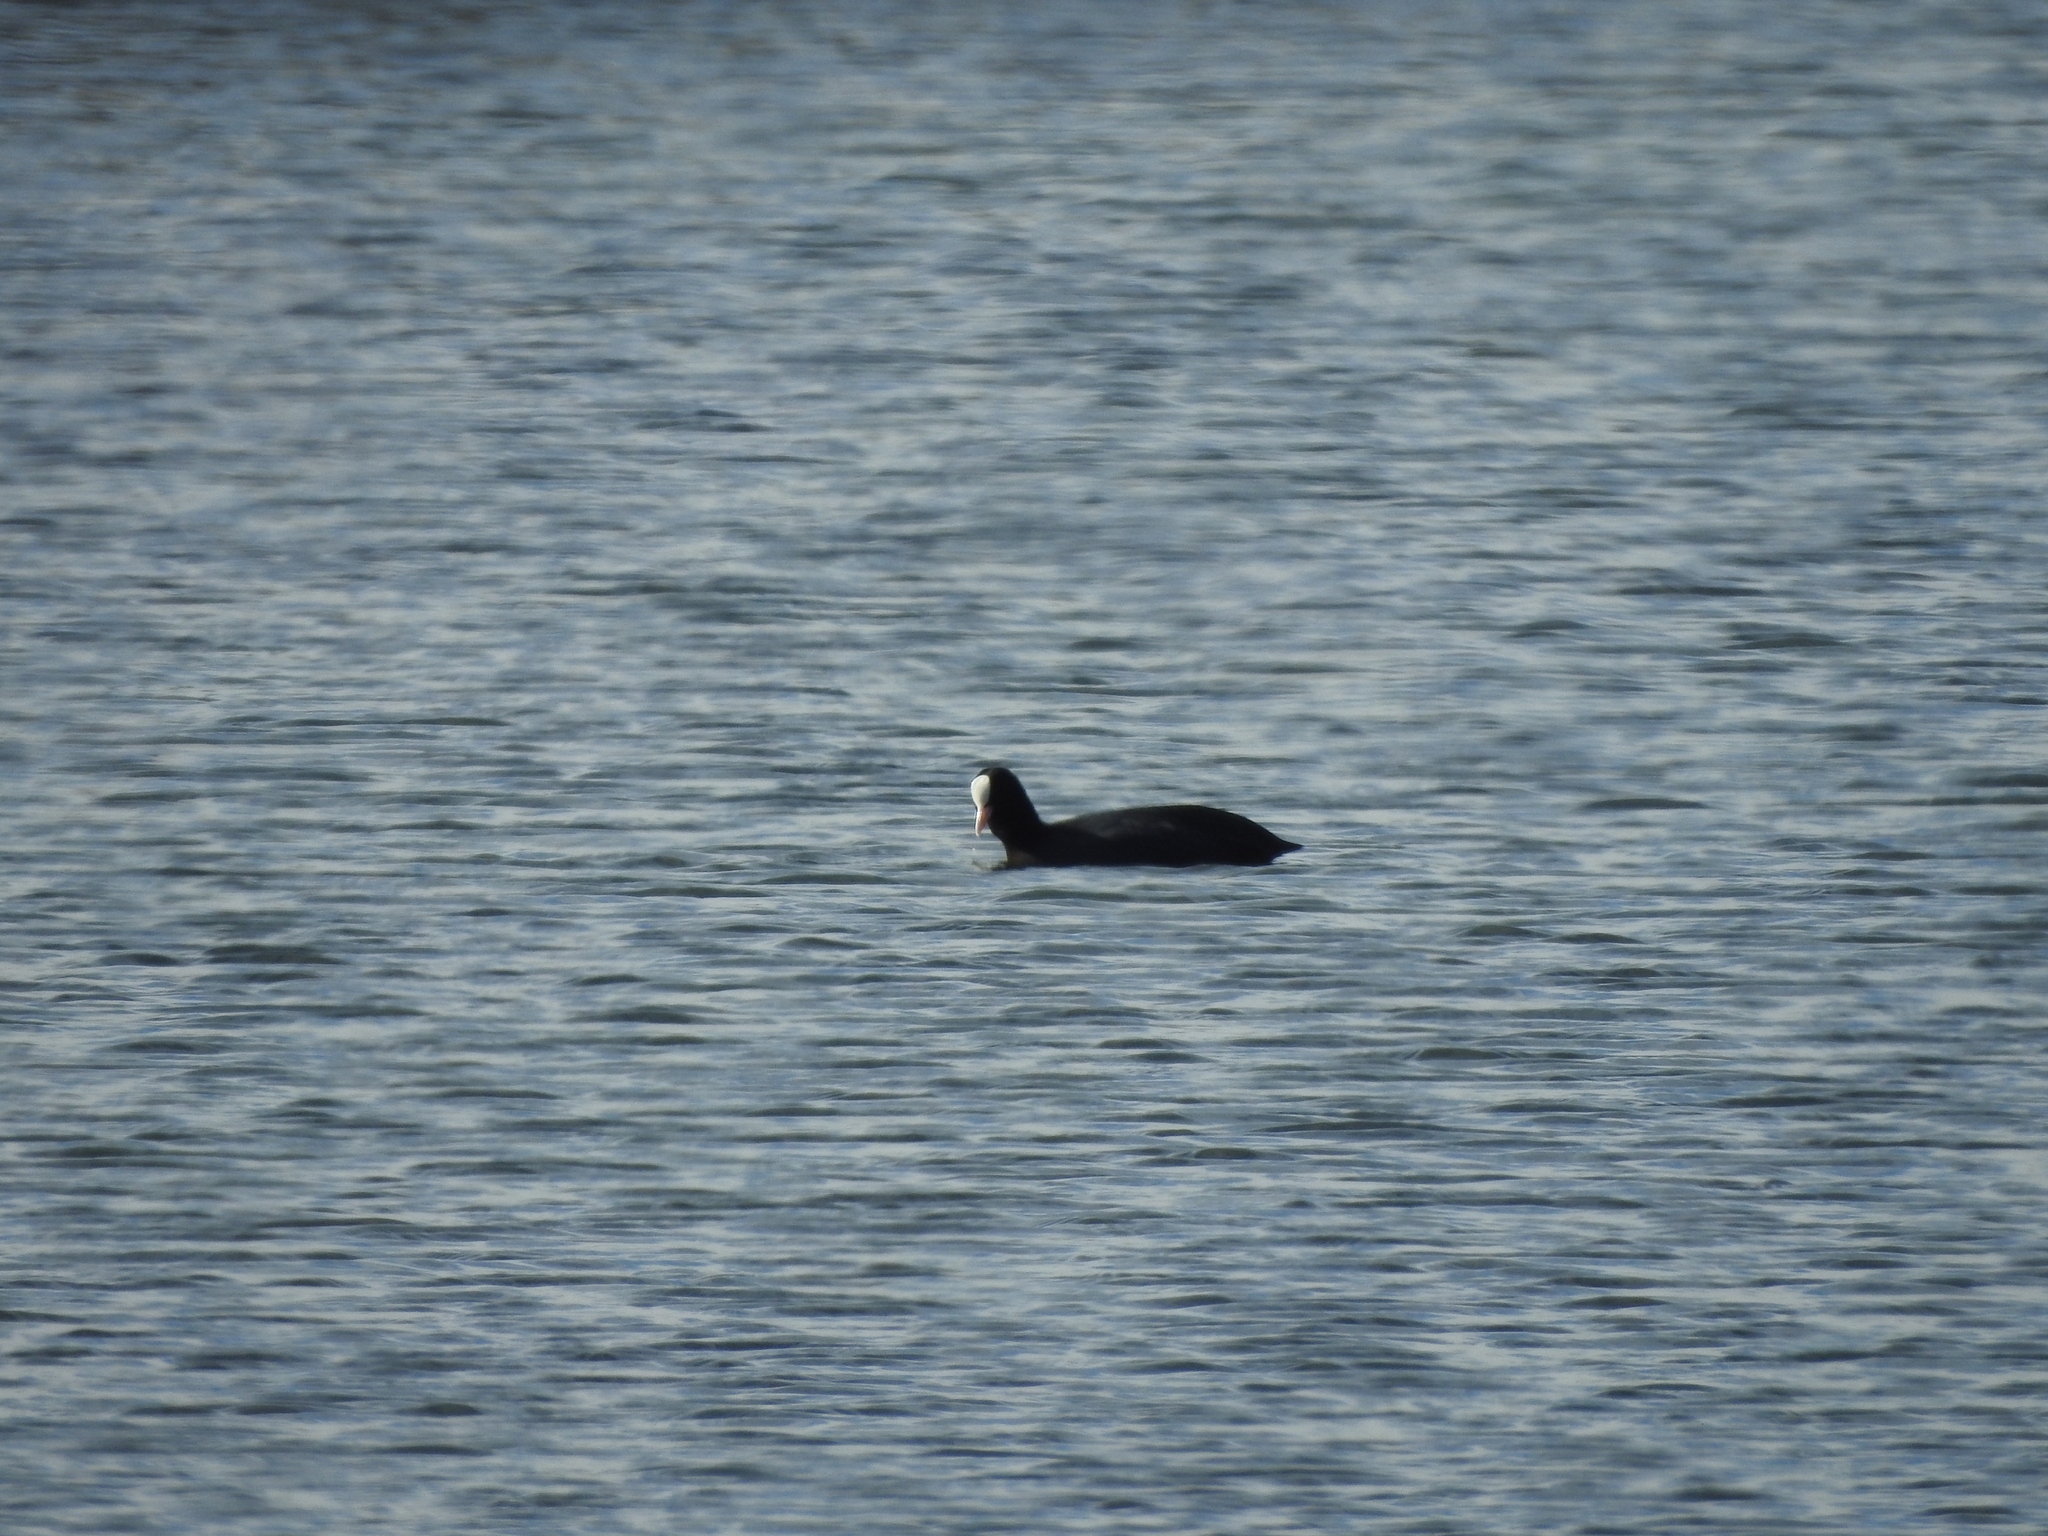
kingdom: Animalia
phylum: Chordata
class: Aves
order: Gruiformes
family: Rallidae
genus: Fulica
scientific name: Fulica atra
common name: Eurasian coot
